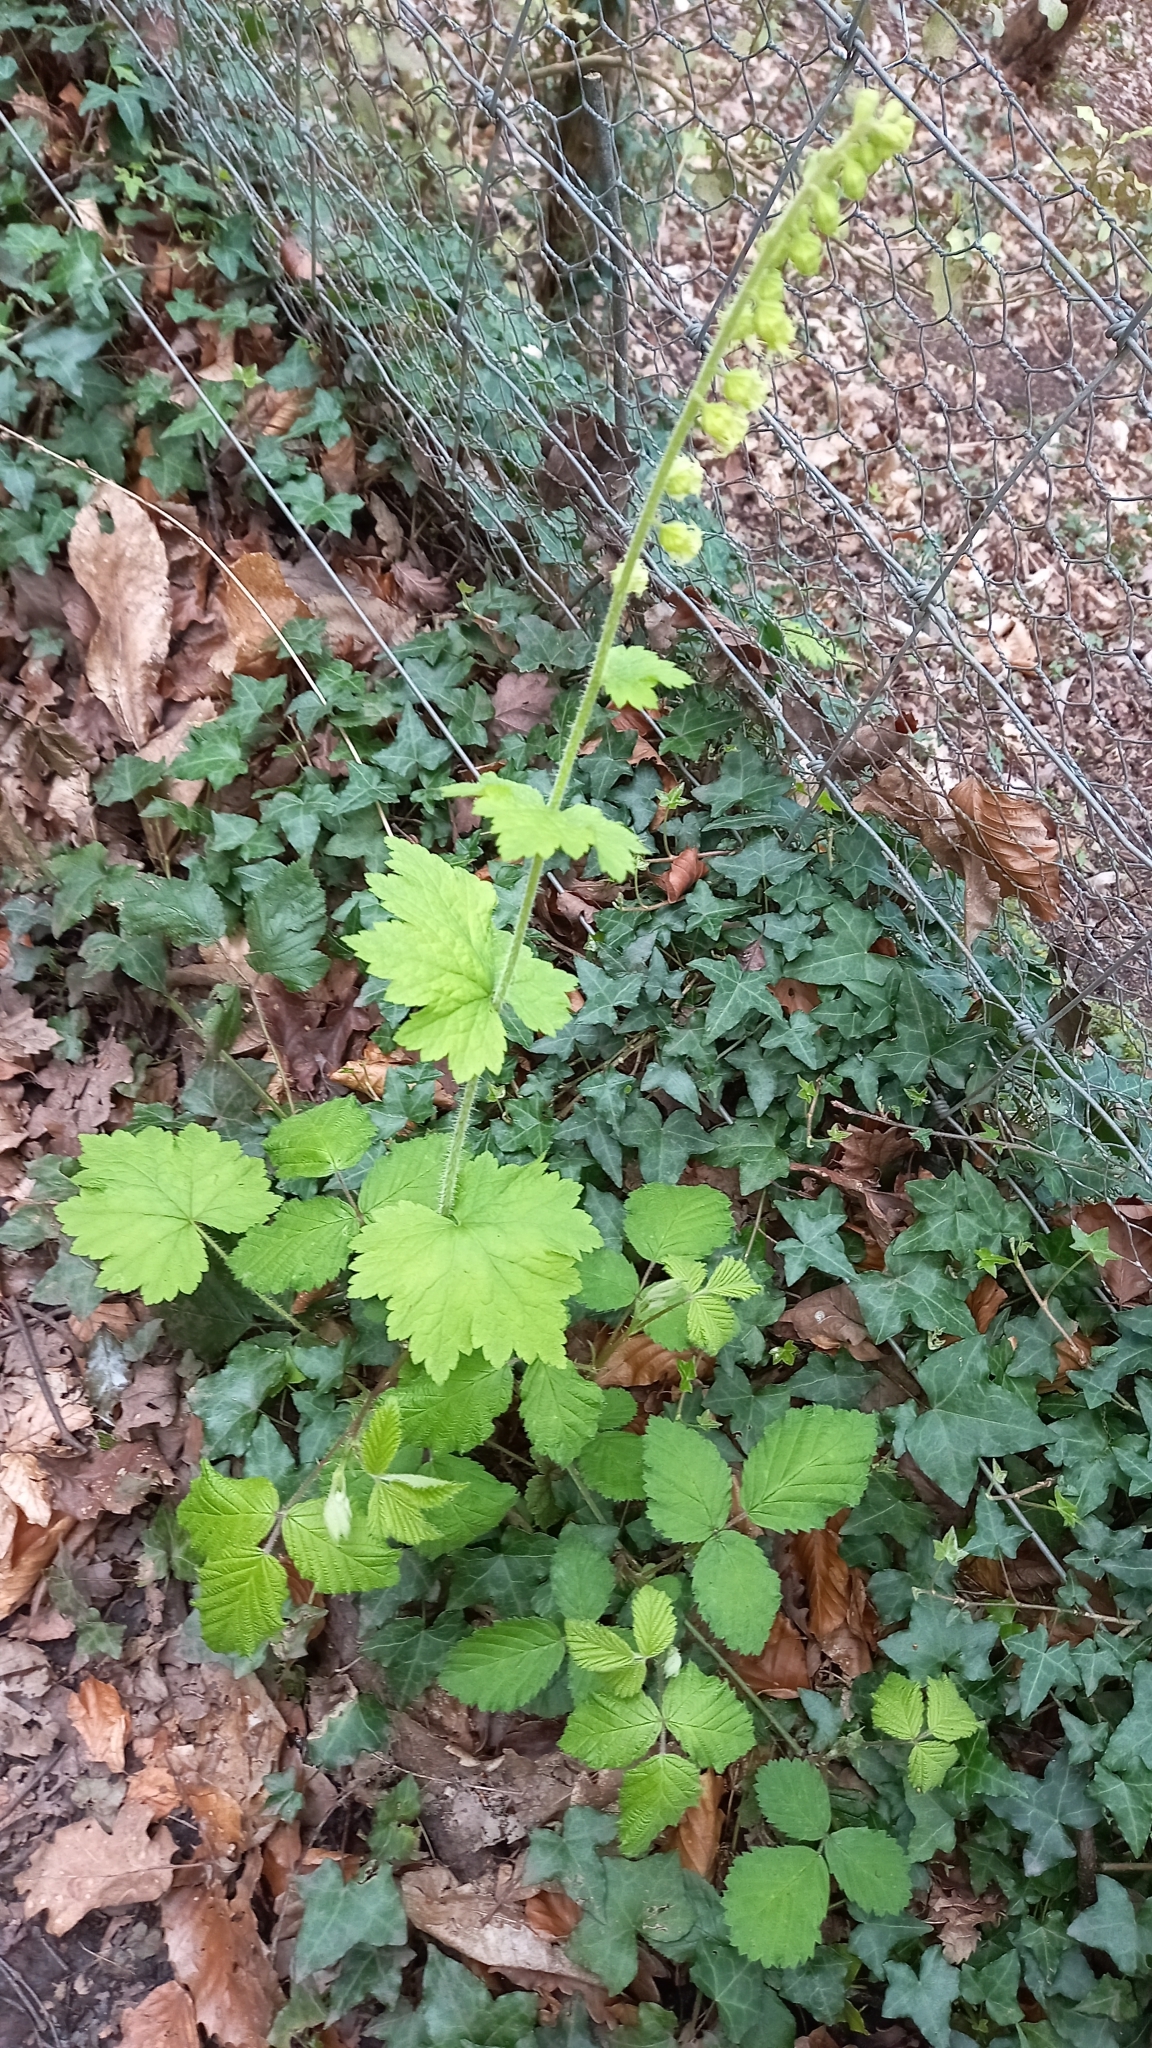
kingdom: Plantae
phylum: Tracheophyta
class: Magnoliopsida
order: Saxifragales
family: Saxifragaceae
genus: Tellima
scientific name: Tellima grandiflora
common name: Fringecups
